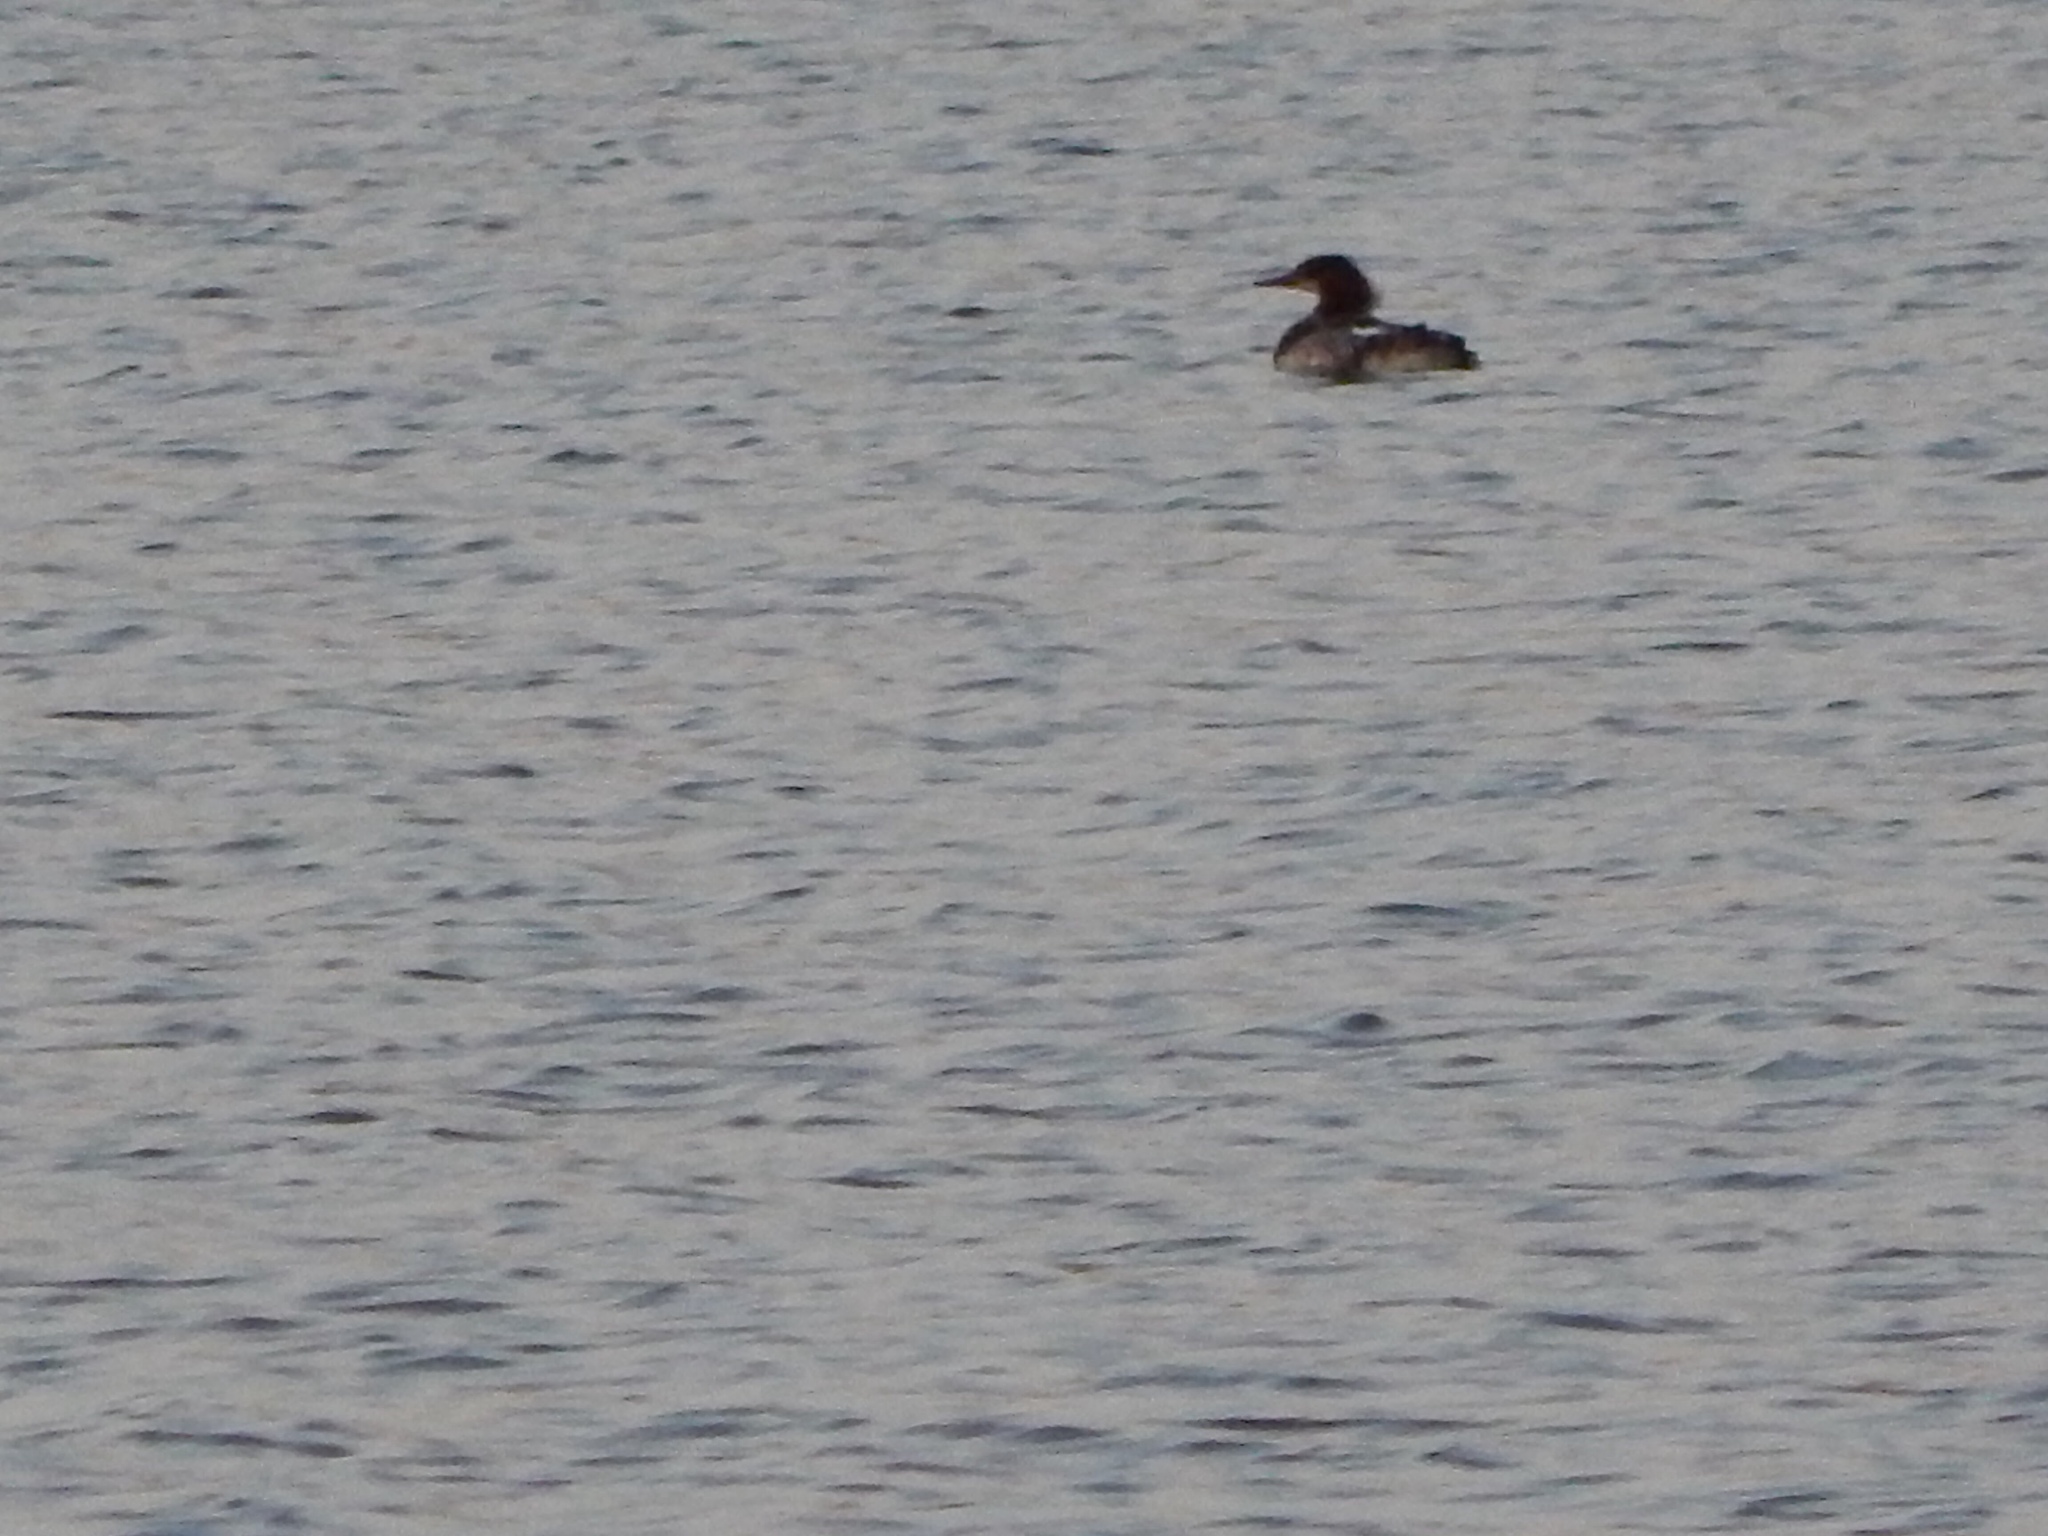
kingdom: Animalia
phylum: Chordata
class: Aves
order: Anseriformes
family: Anatidae
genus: Mergus
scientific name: Mergus merganser
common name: Common merganser
